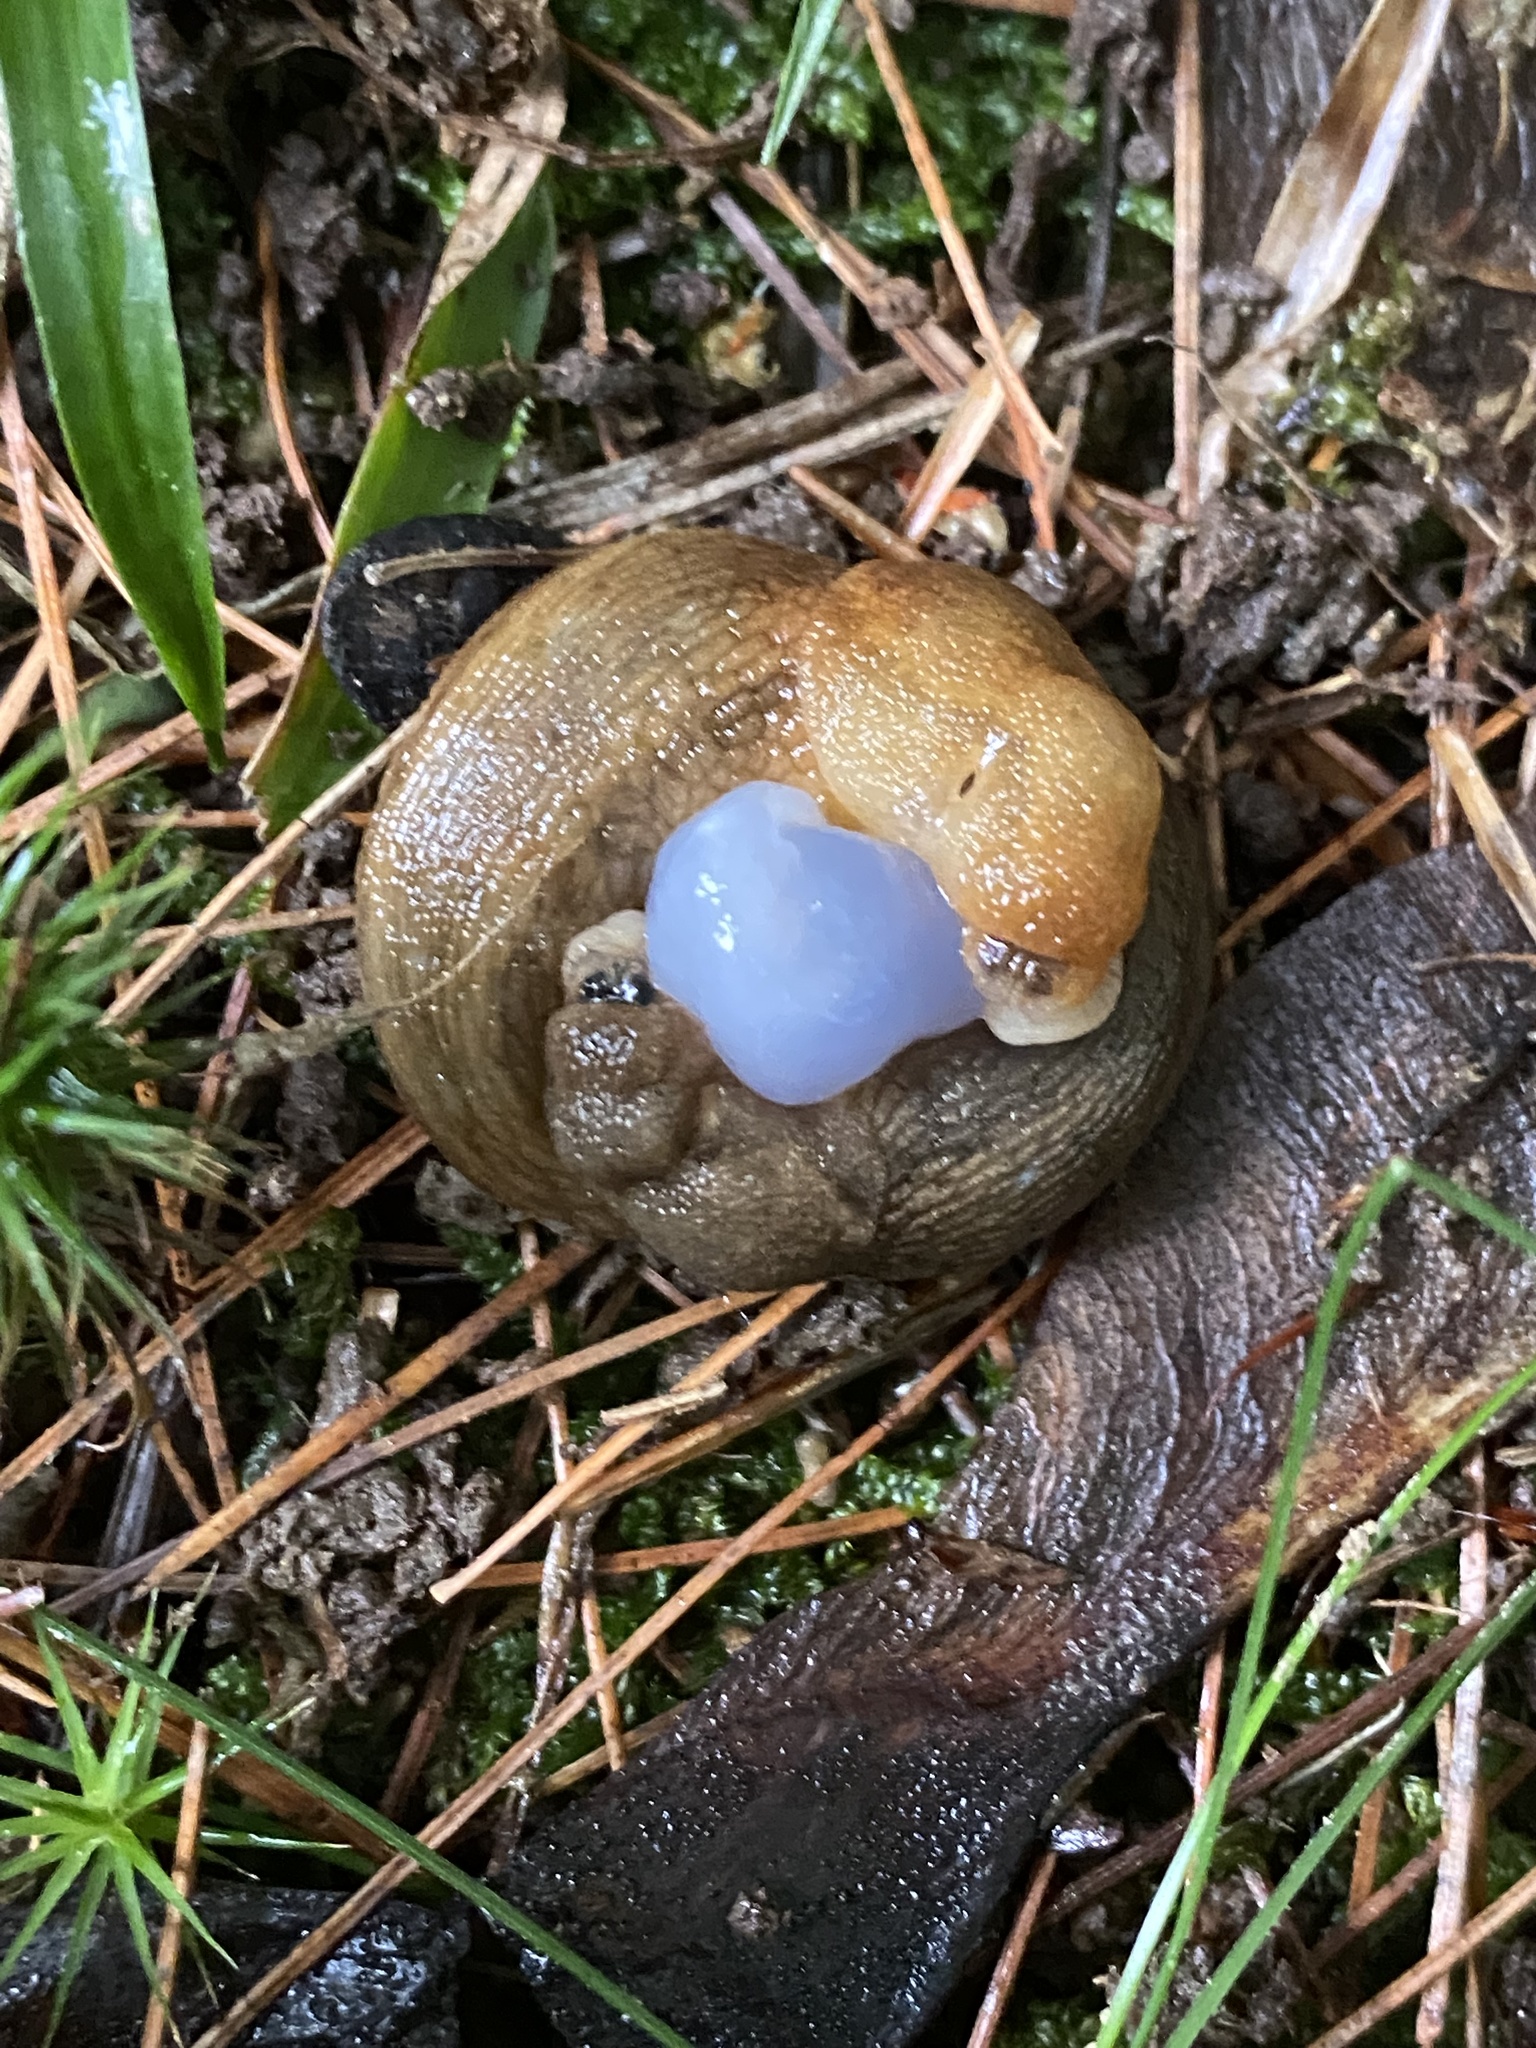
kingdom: Animalia
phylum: Mollusca
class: Gastropoda
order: Stylommatophora
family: Agriolimacidae
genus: Deroceras
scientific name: Deroceras reticulatum
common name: Gray field slug
